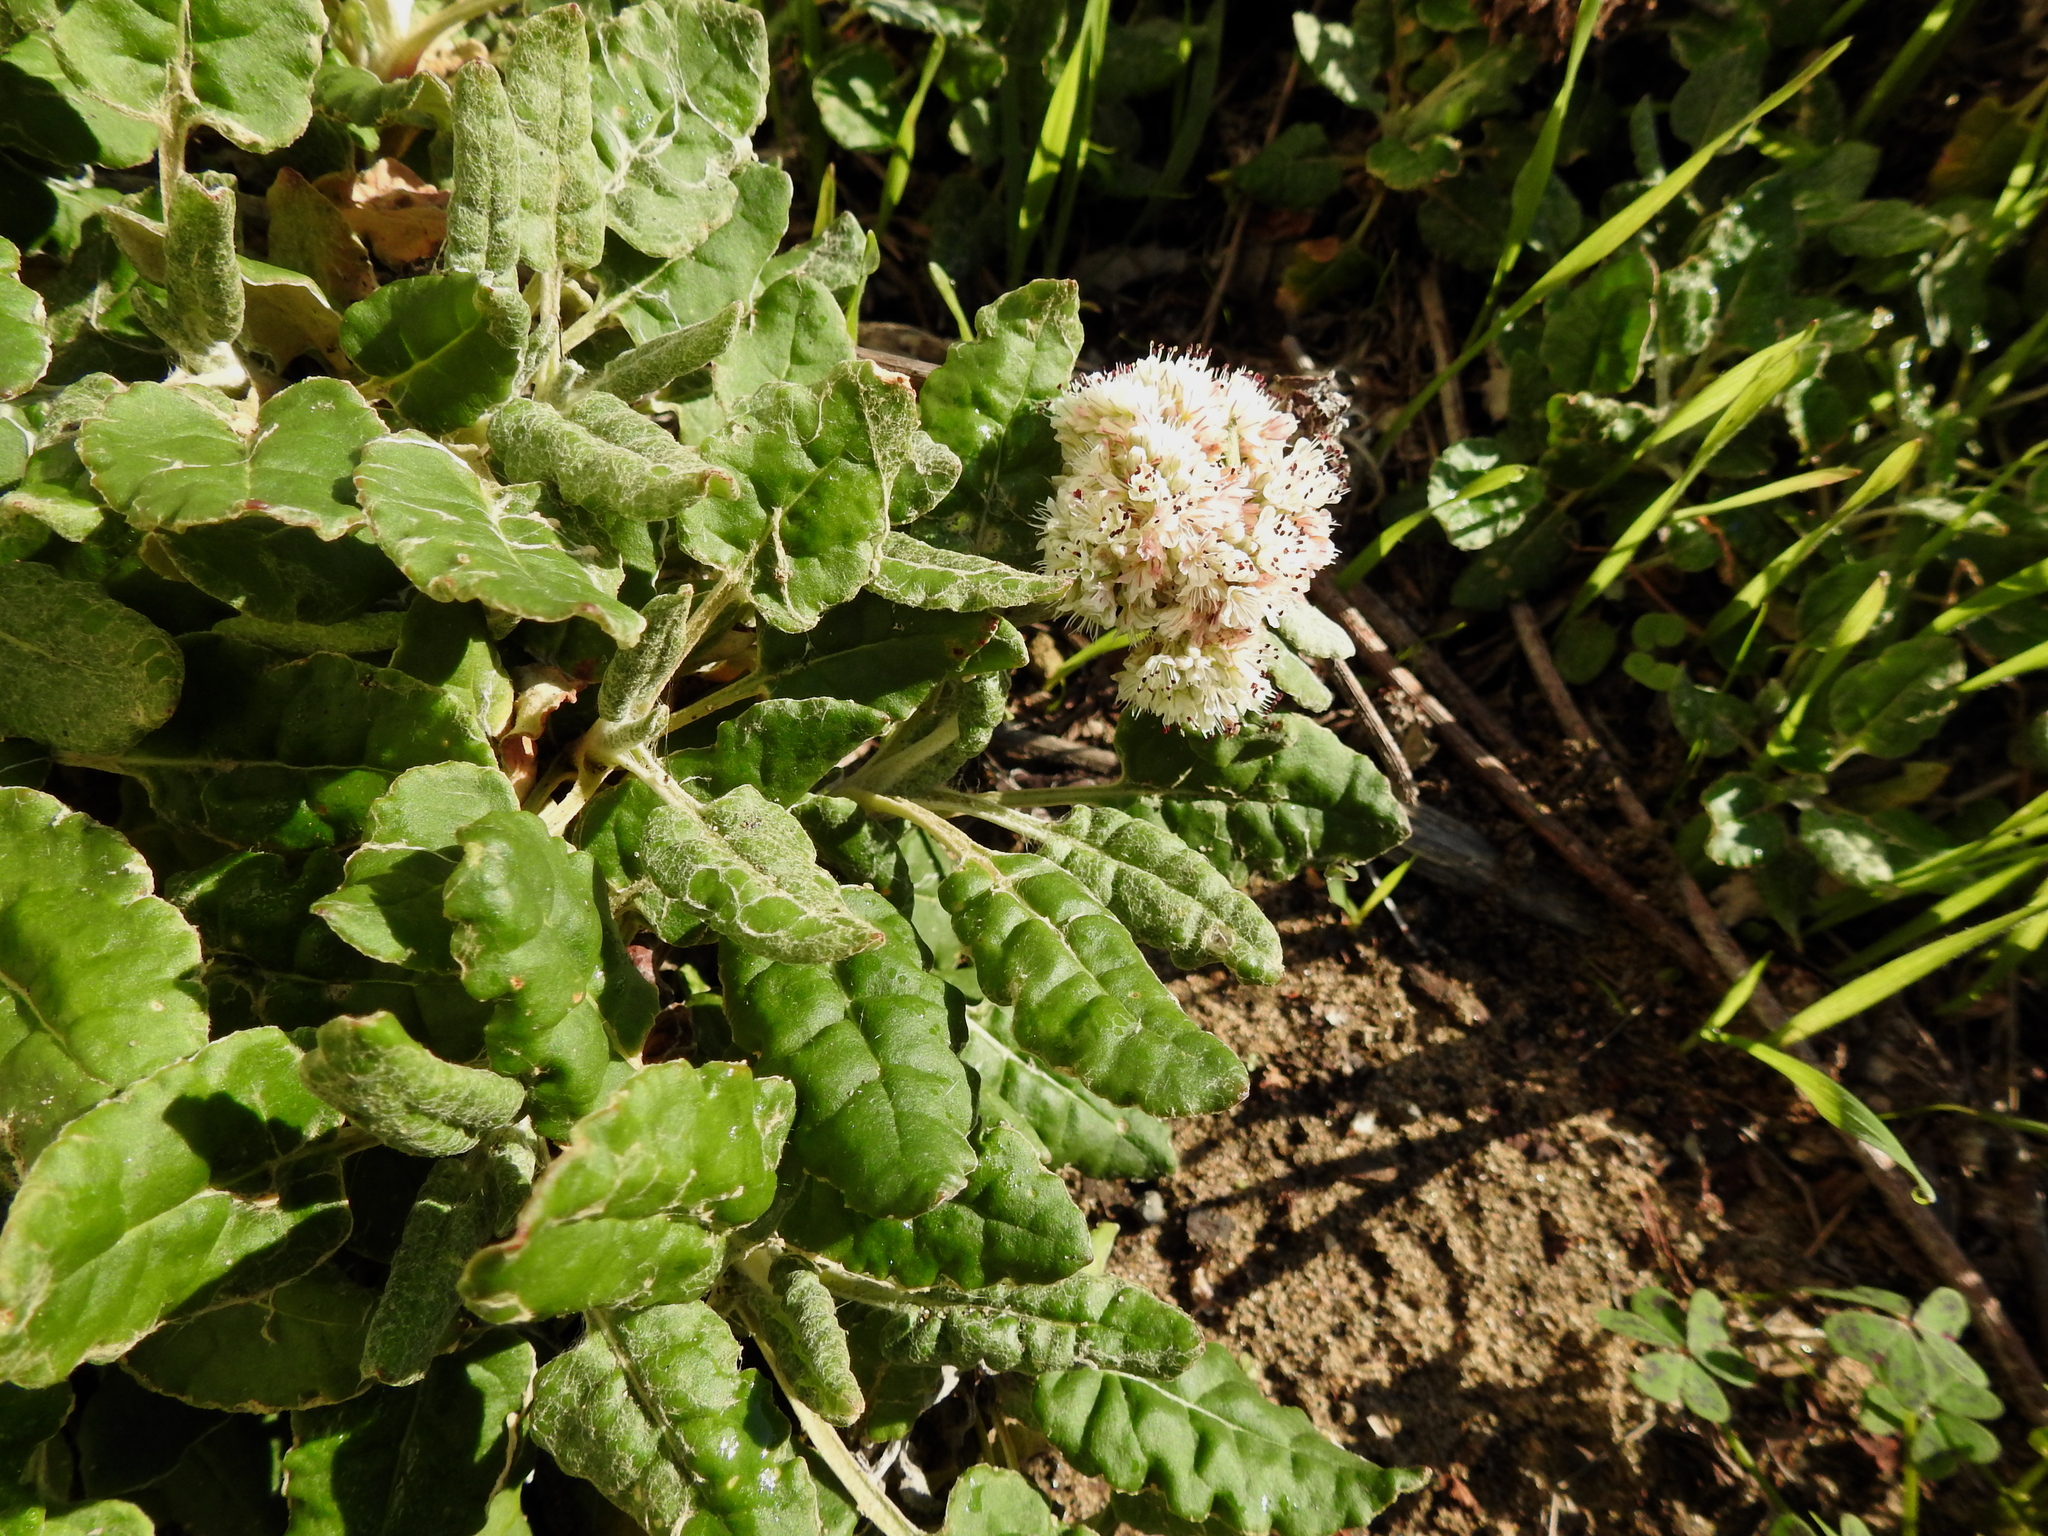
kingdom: Plantae
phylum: Tracheophyta
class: Magnoliopsida
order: Caryophyllales
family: Polygonaceae
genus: Eriogonum
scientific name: Eriogonum latifolium
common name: Seaside wild buckwheat
